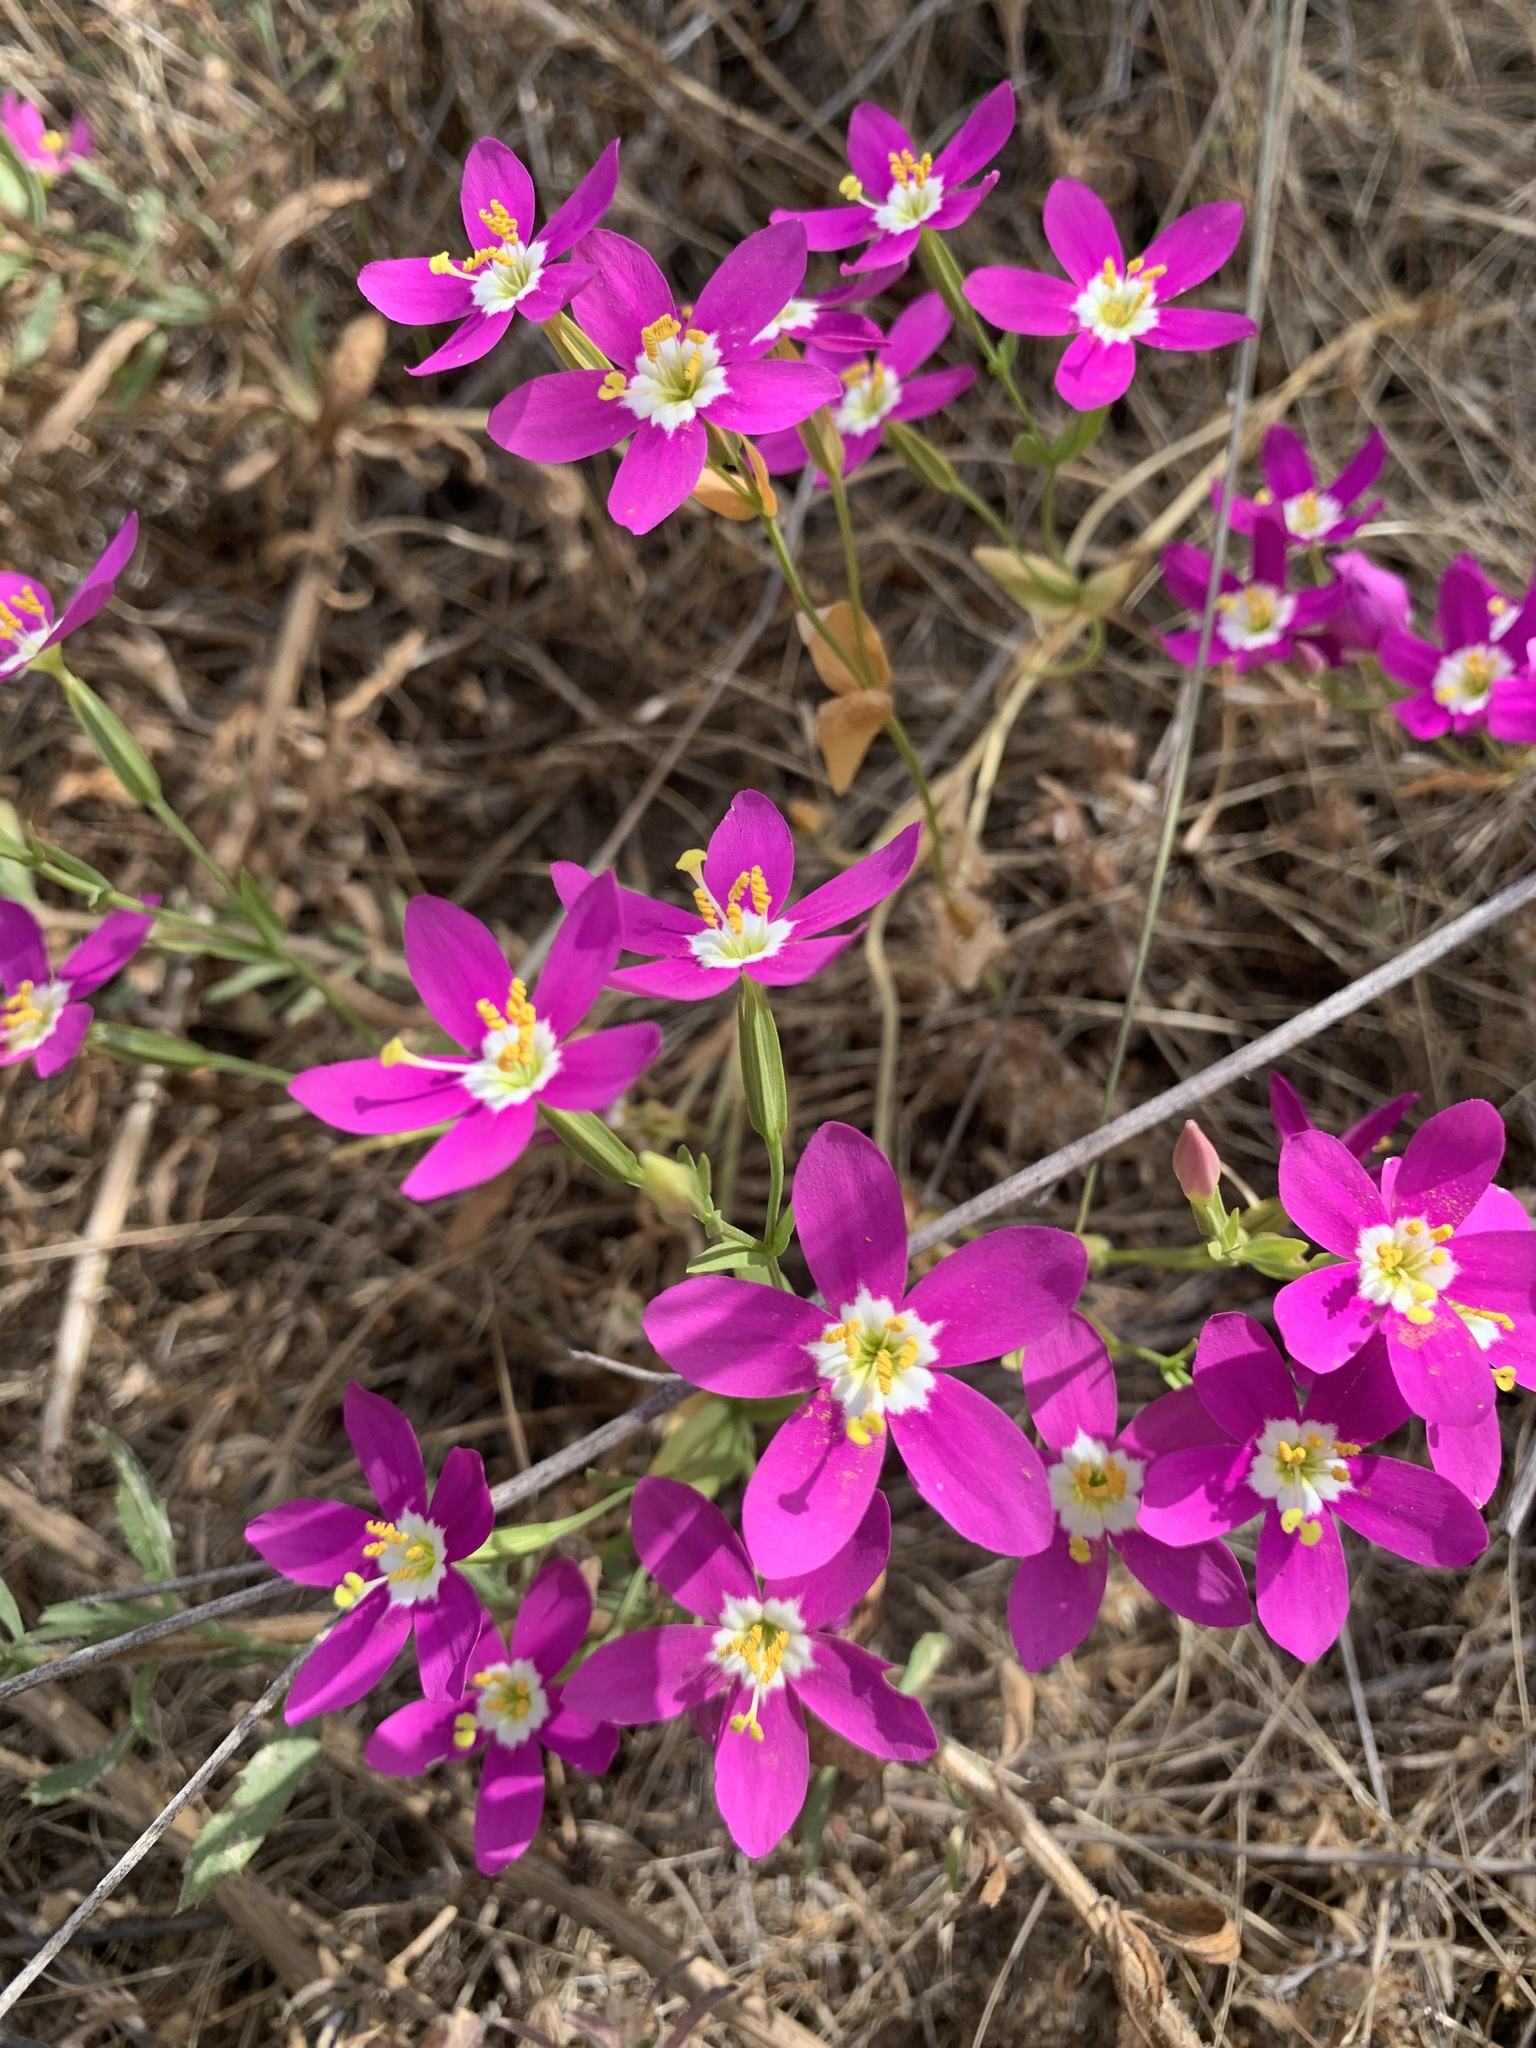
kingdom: Plantae
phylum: Tracheophyta
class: Magnoliopsida
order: Gentianales
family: Gentianaceae
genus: Zeltnera
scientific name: Zeltnera venusta
